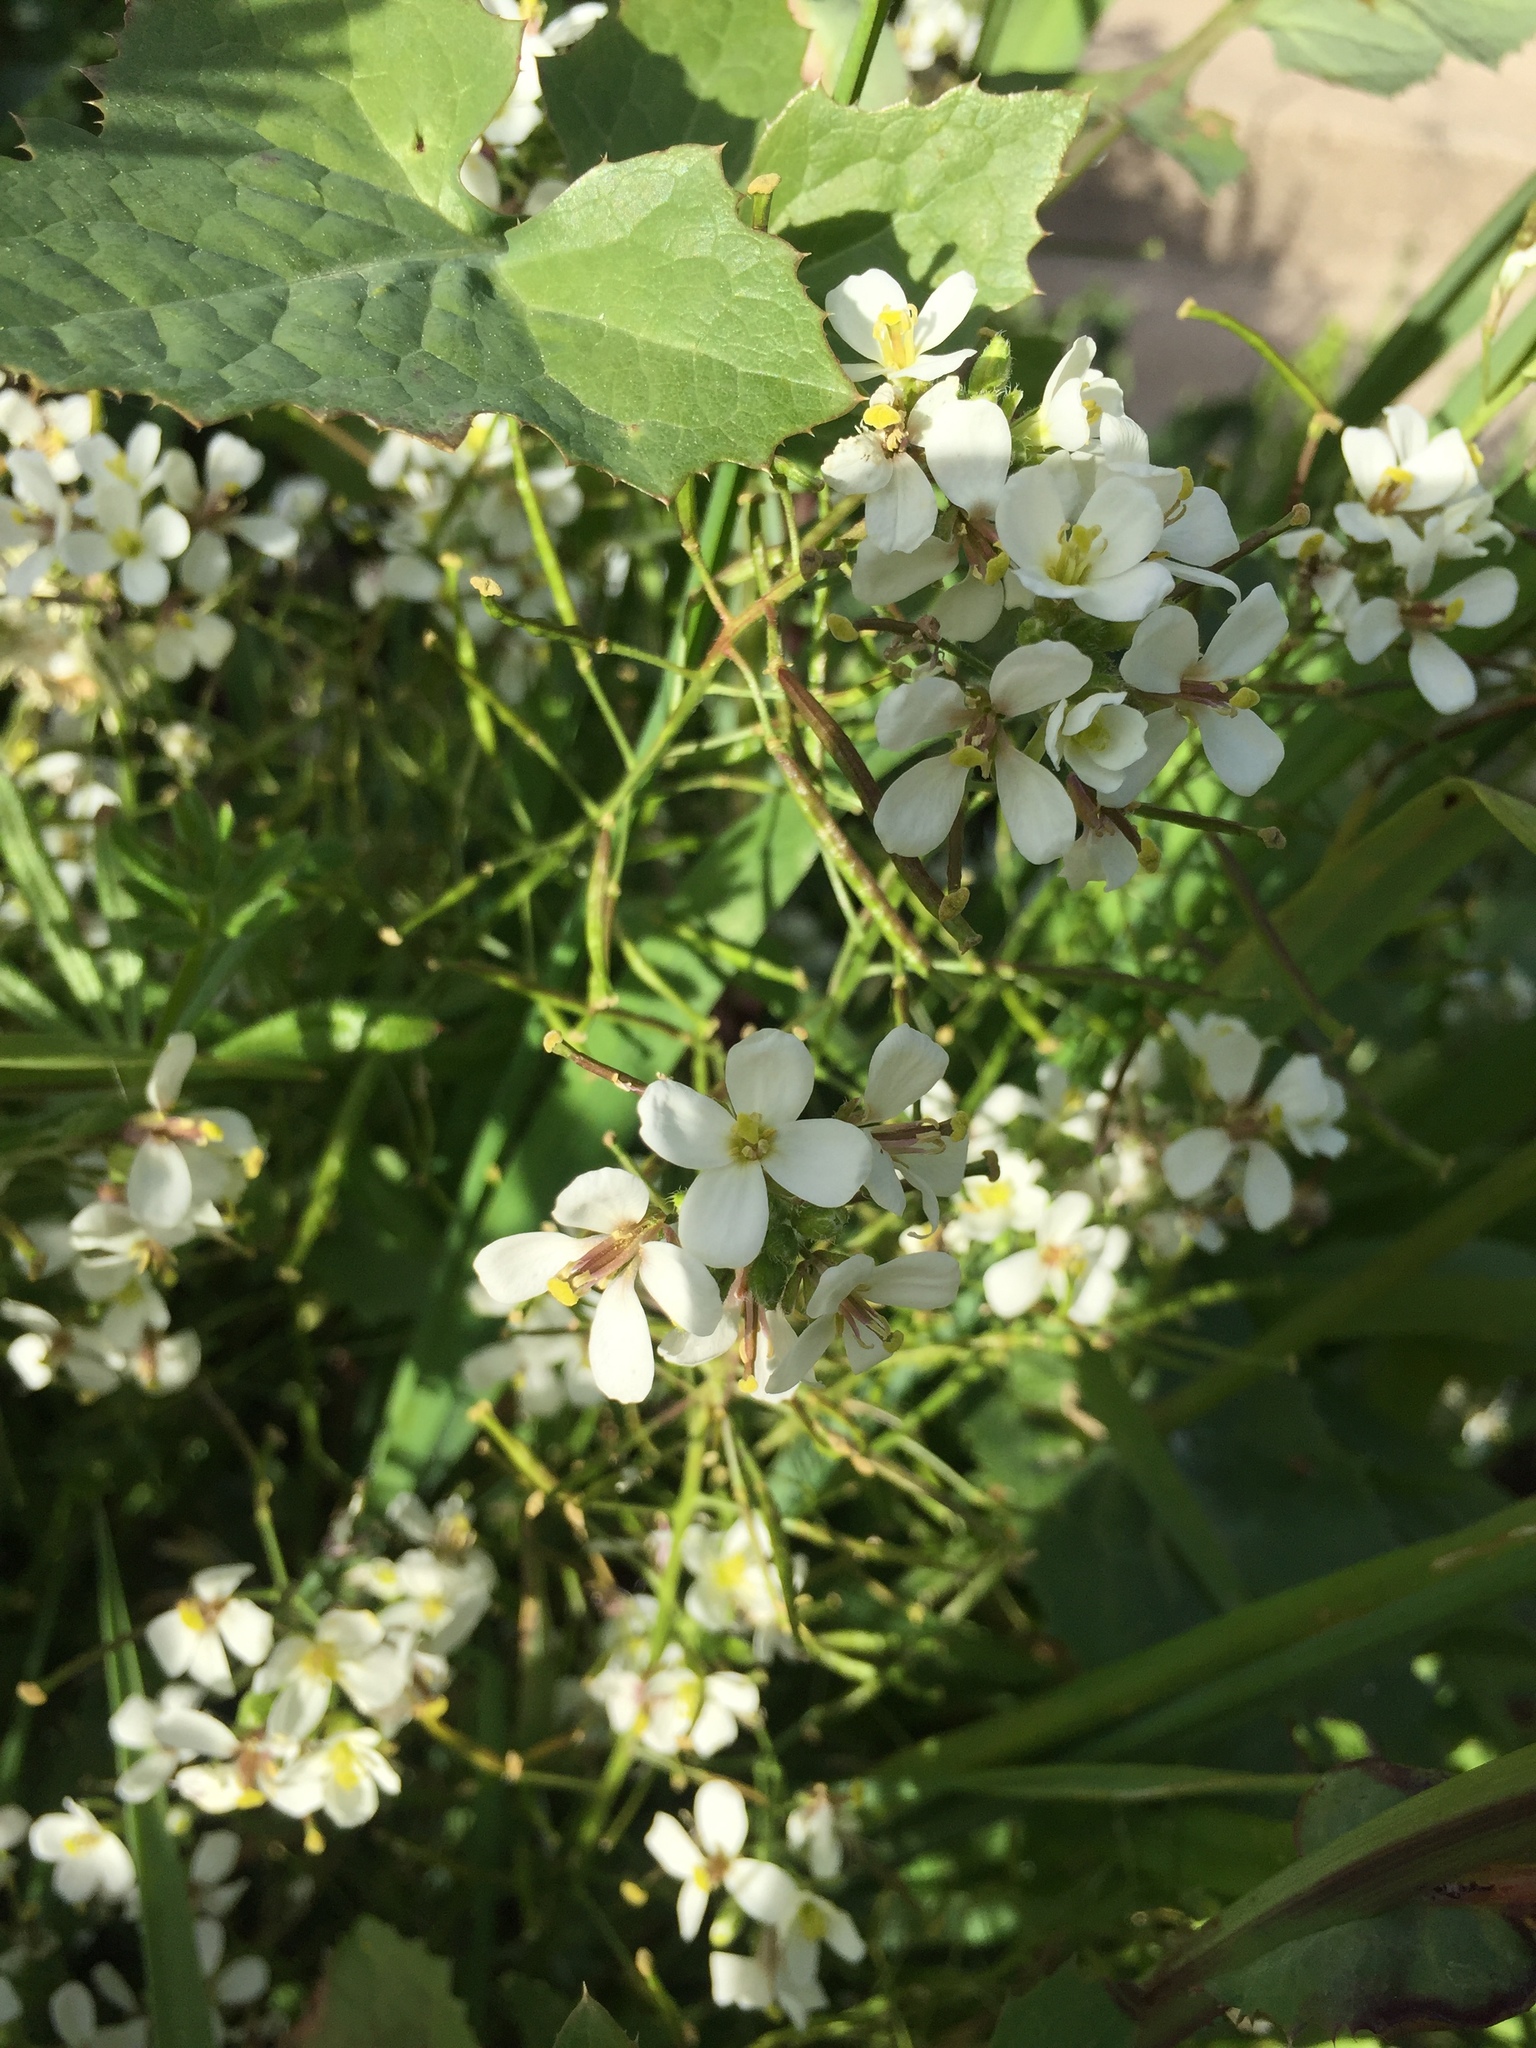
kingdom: Plantae
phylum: Tracheophyta
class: Magnoliopsida
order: Brassicales
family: Brassicaceae
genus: Diplotaxis
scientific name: Diplotaxis erucoides
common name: White rocket
